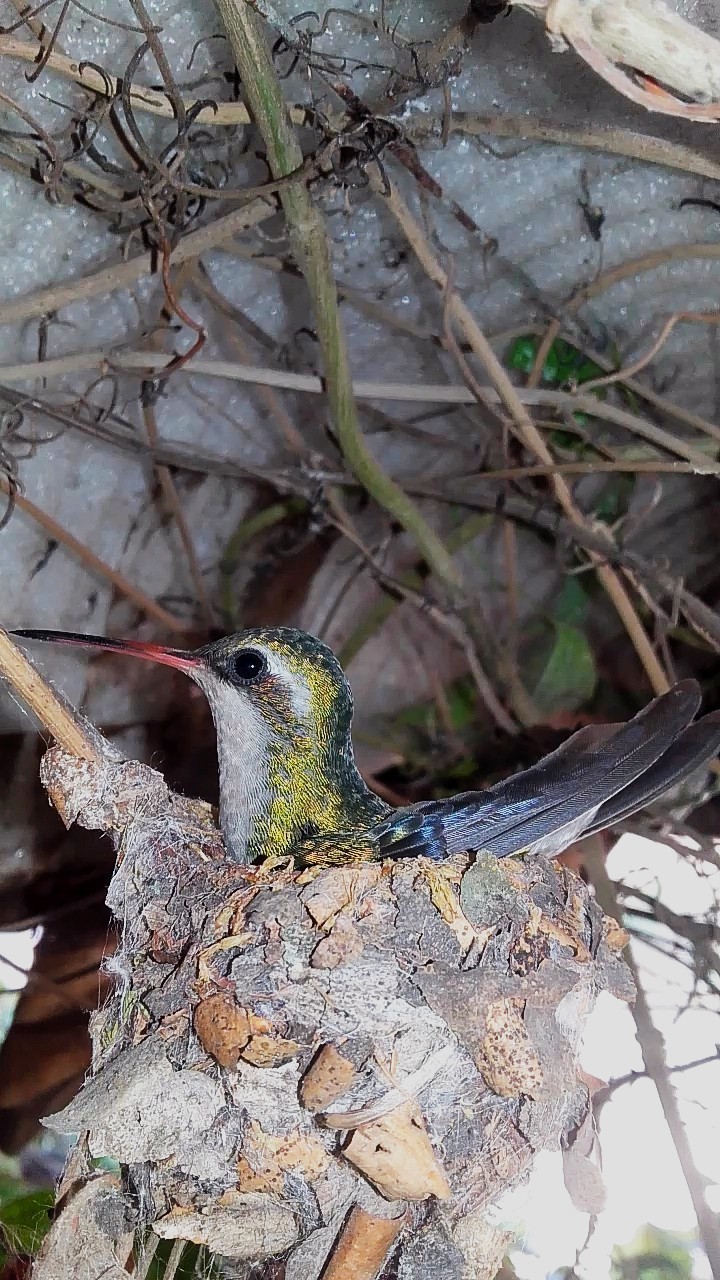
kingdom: Animalia
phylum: Chordata
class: Aves
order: Apodiformes
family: Trochilidae
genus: Chlorostilbon
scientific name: Chlorostilbon lucidus
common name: Glittering-bellied emerald
